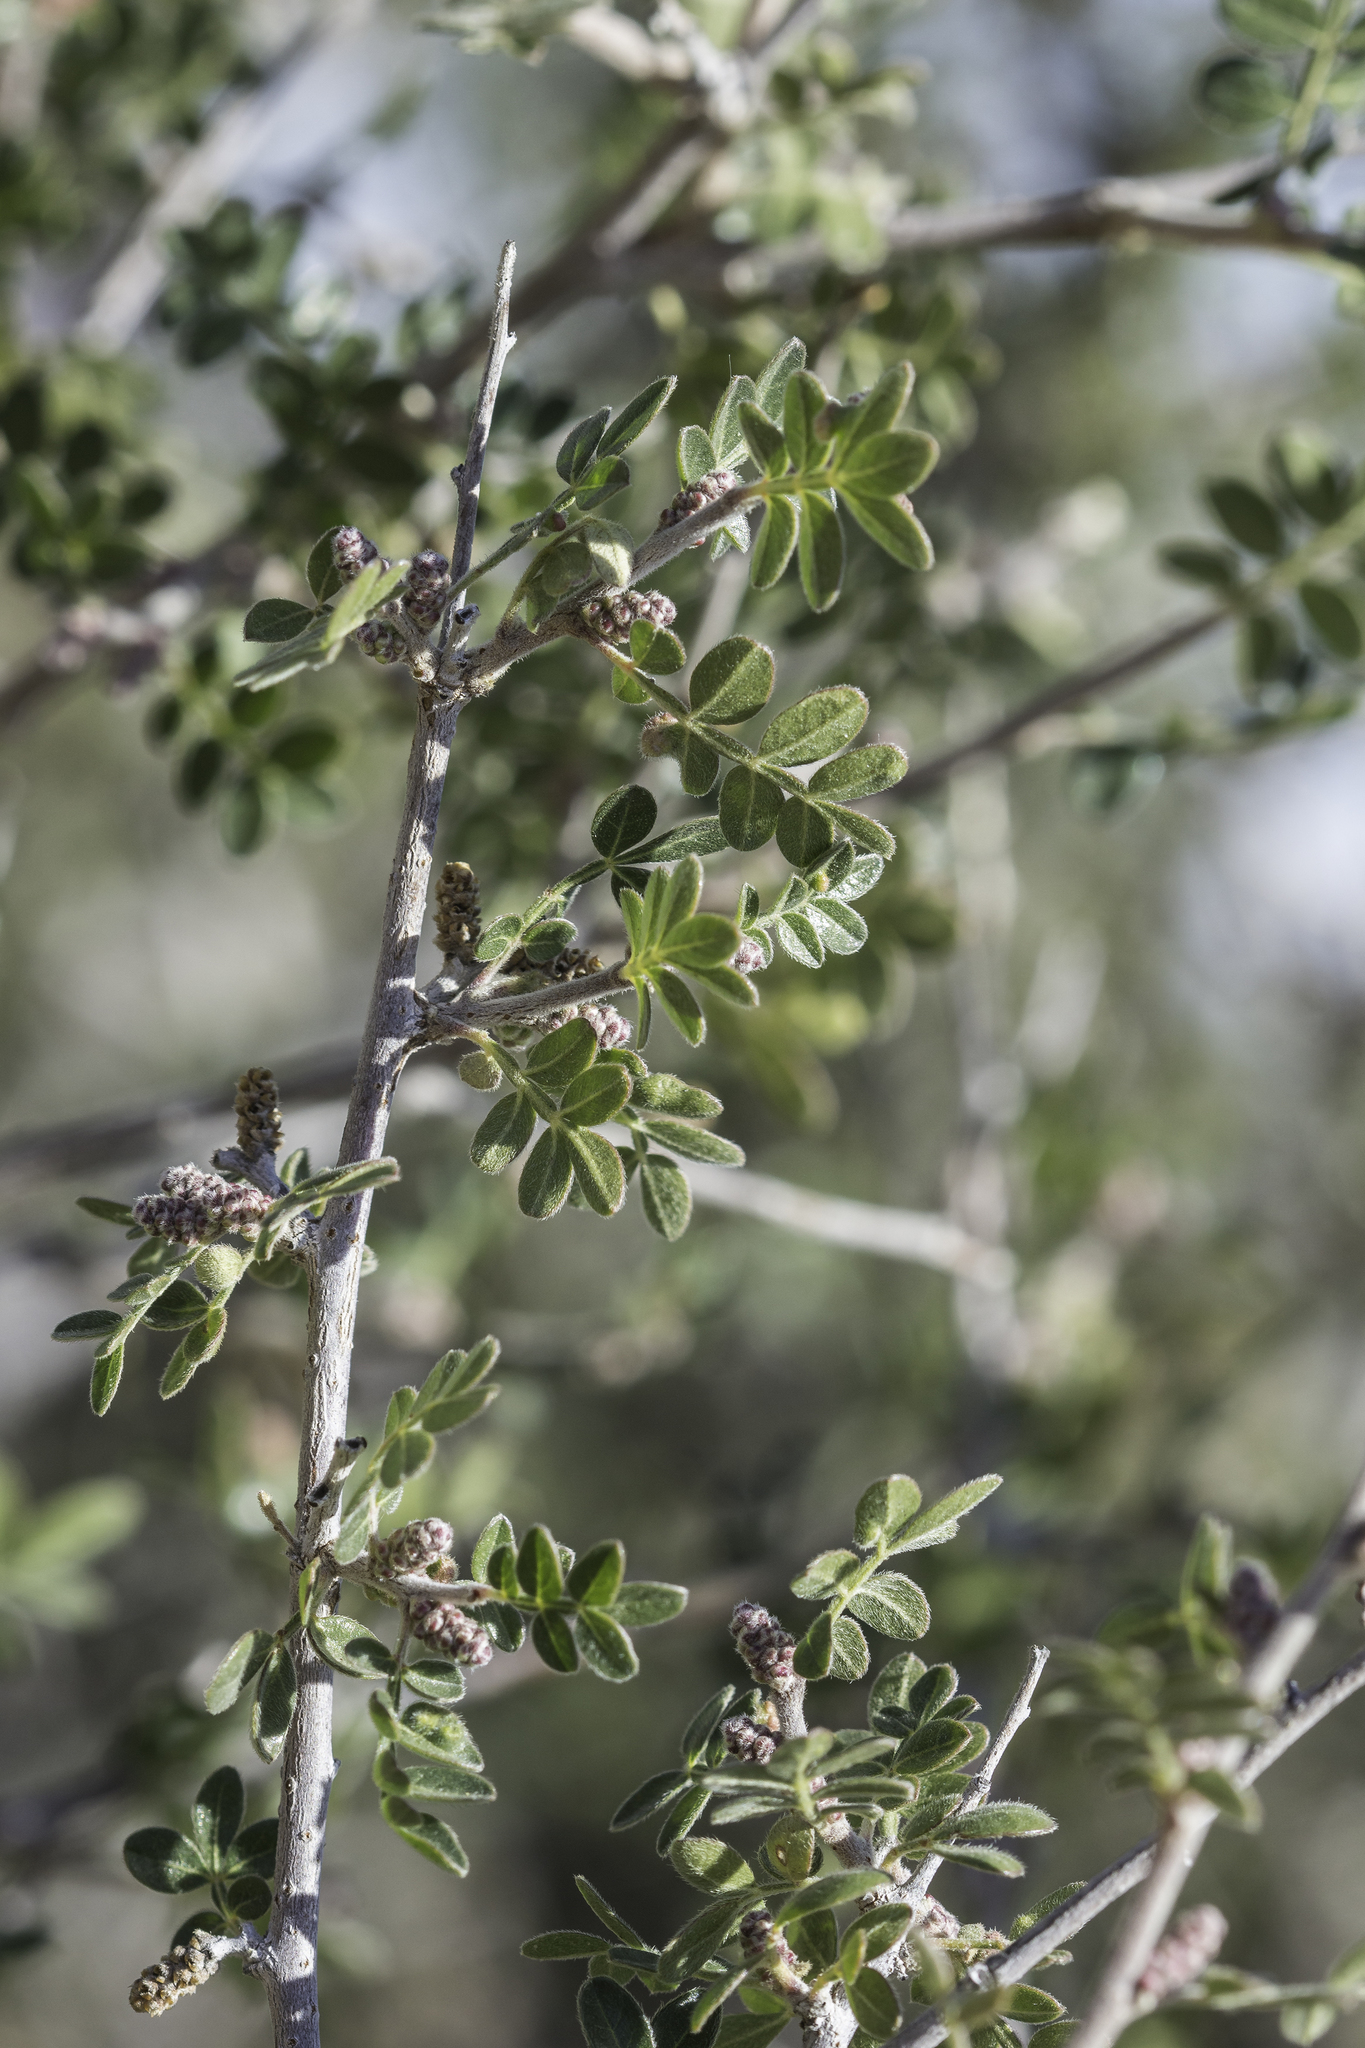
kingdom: Plantae
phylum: Tracheophyta
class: Magnoliopsida
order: Sapindales
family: Anacardiaceae
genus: Rhus
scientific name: Rhus microphylla
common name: Desert sumac
